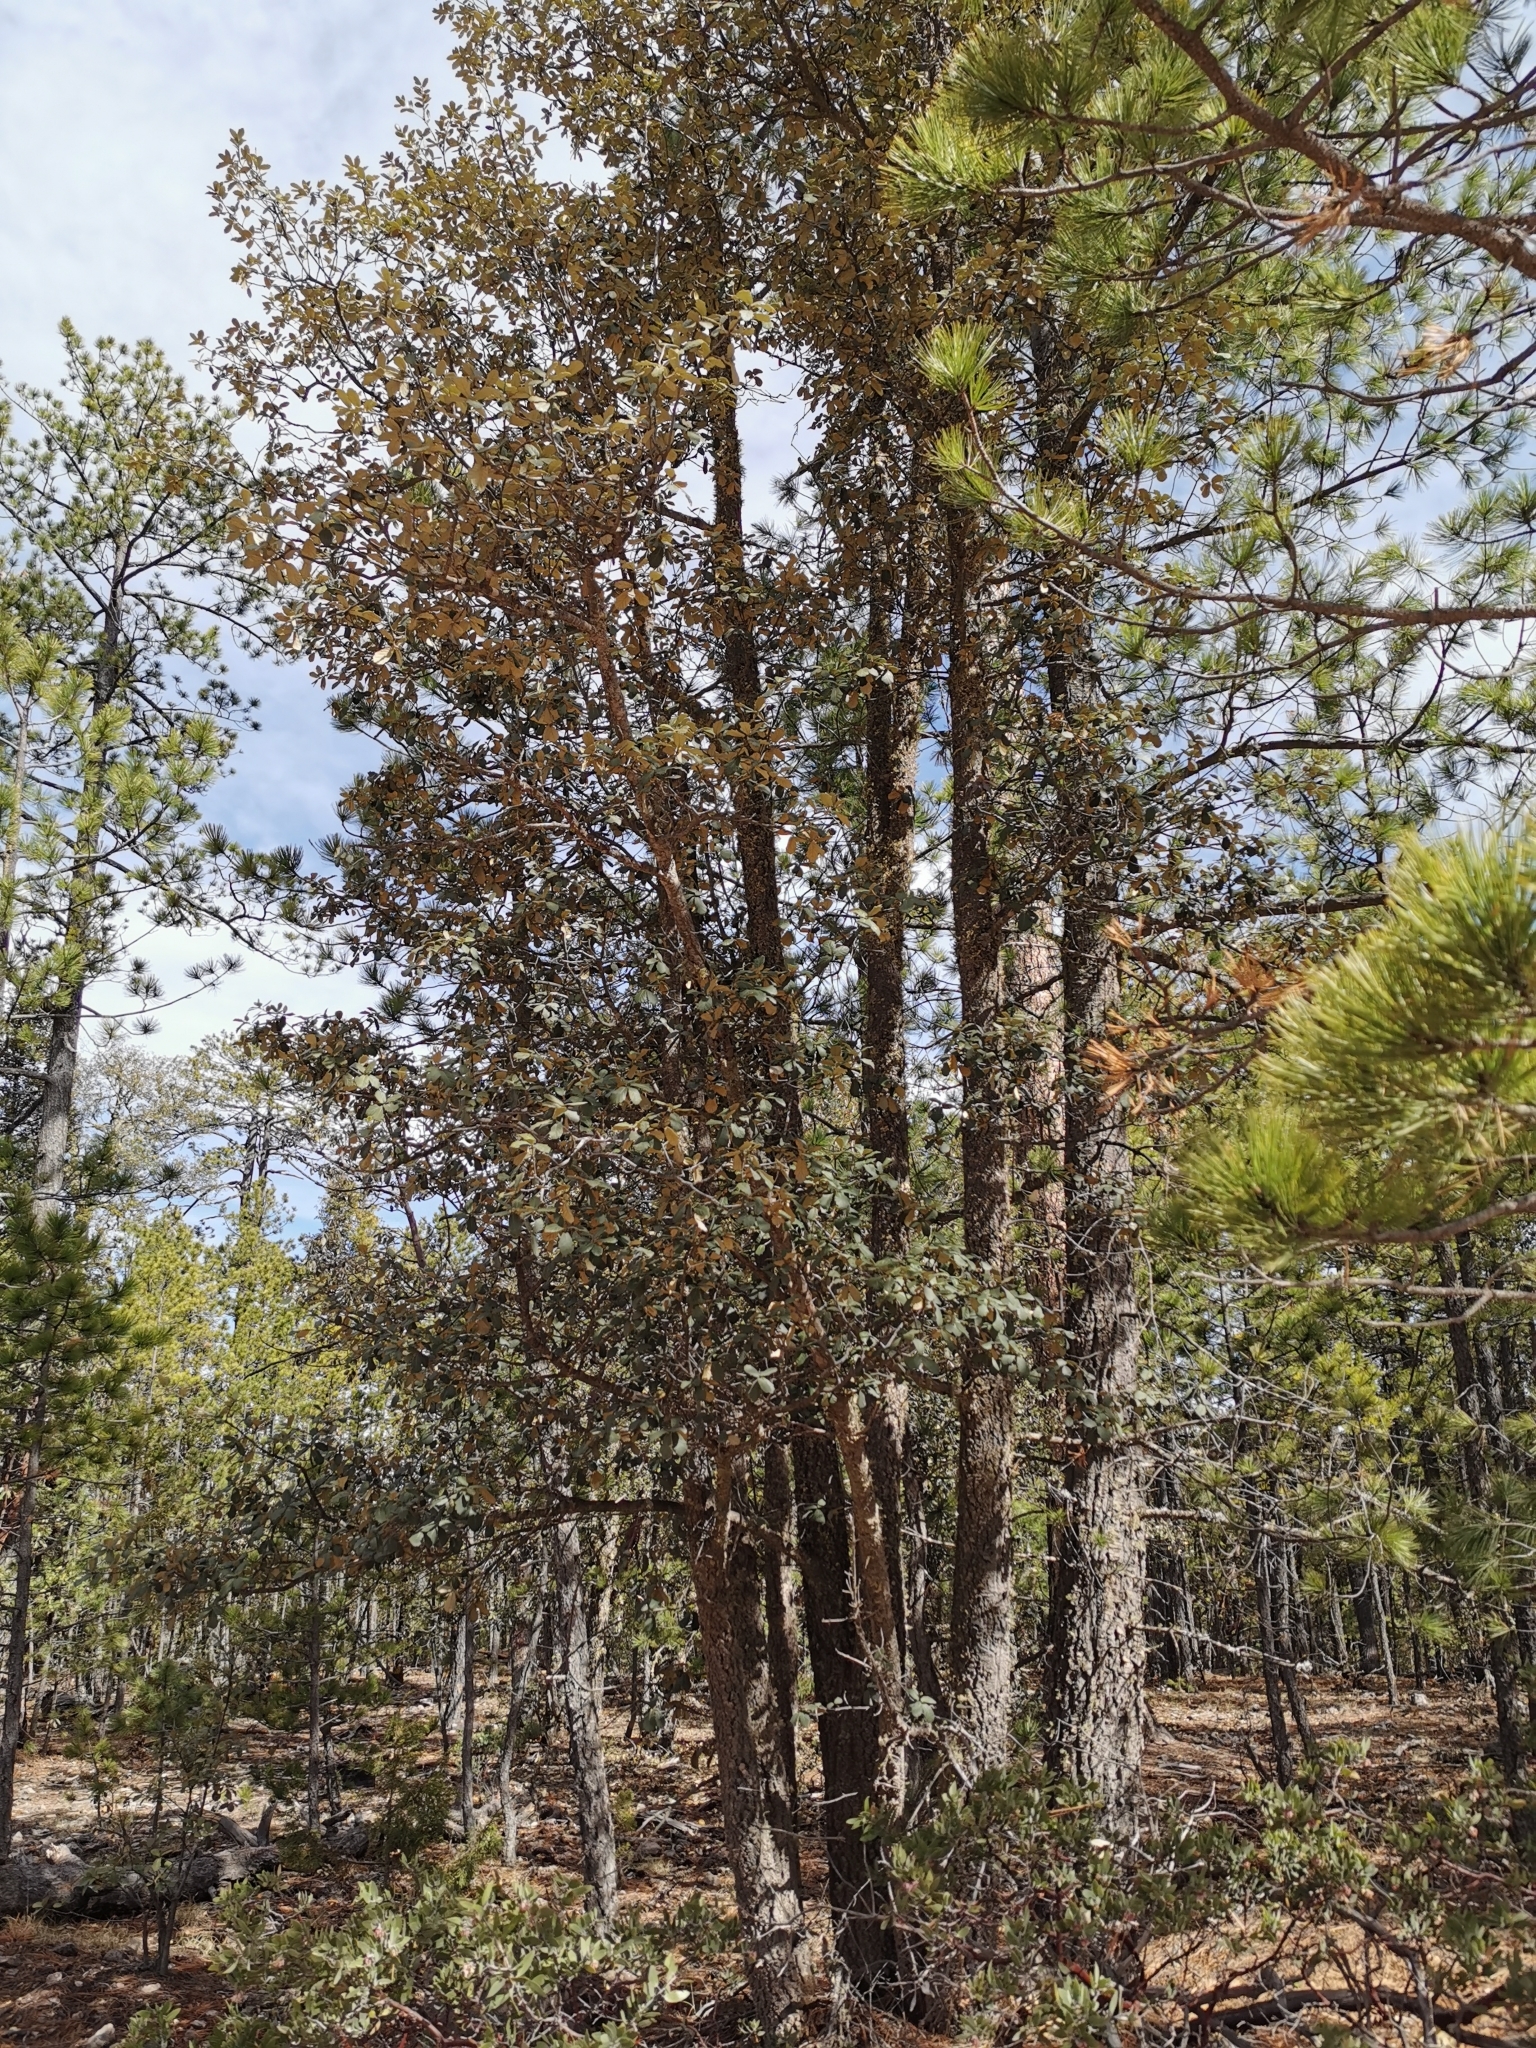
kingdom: Plantae
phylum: Tracheophyta
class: Magnoliopsida
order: Fagales
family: Fagaceae
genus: Quercus
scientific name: Quercus sideroxyla
